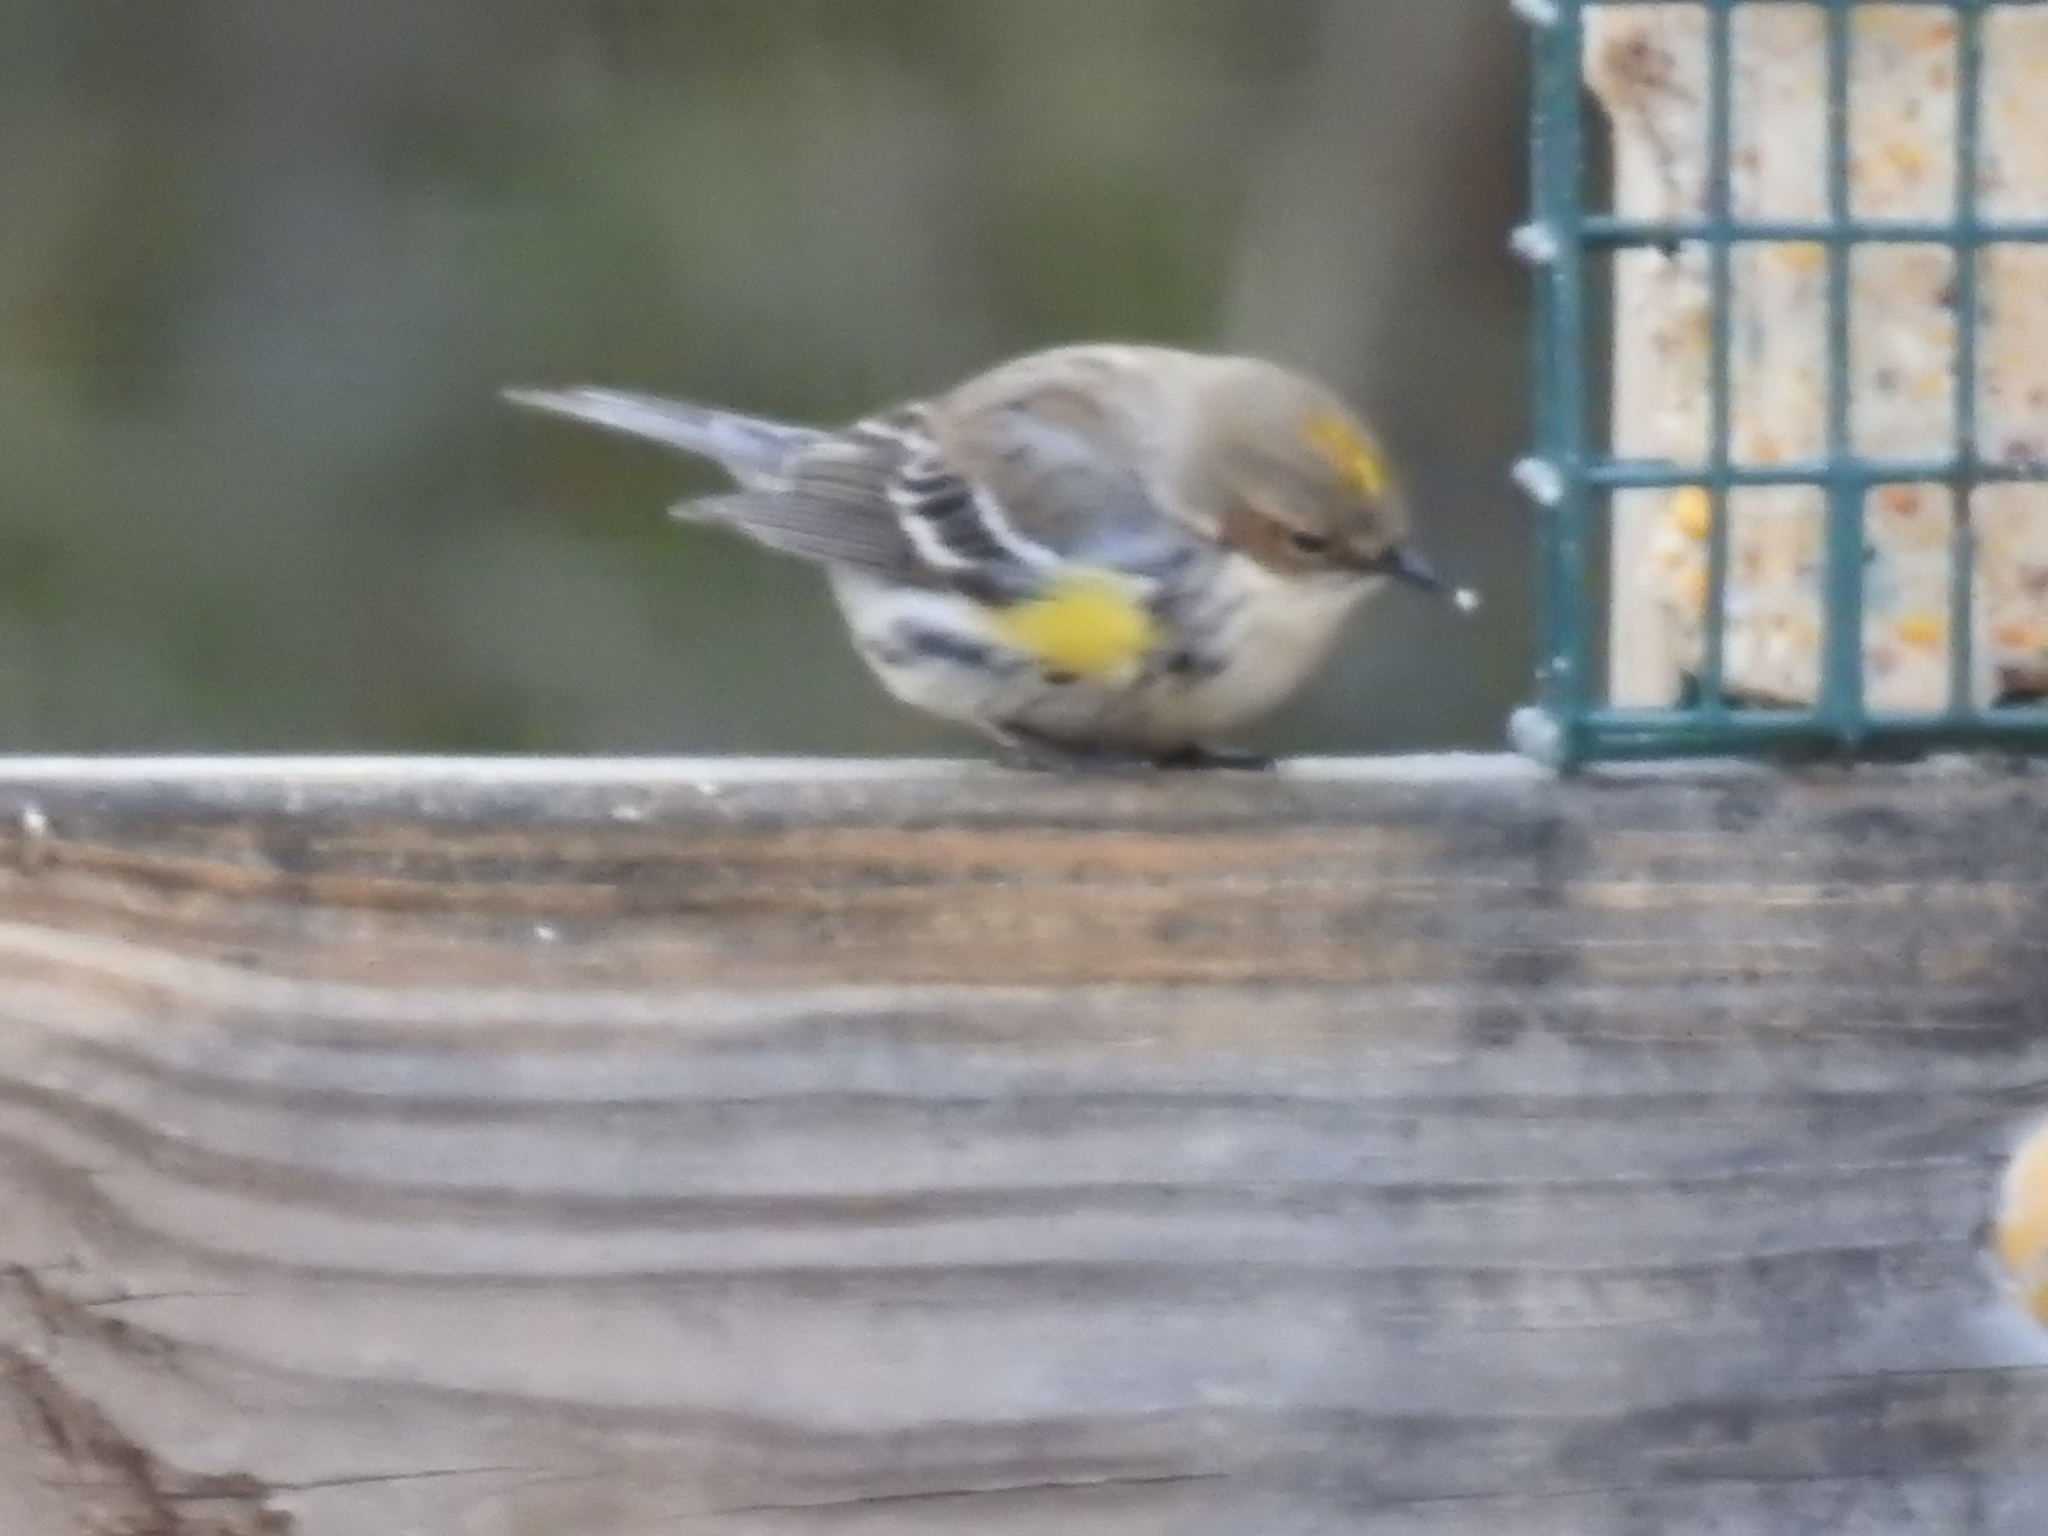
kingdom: Animalia
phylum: Chordata
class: Aves
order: Passeriformes
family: Parulidae
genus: Setophaga
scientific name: Setophaga coronata
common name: Myrtle warbler
